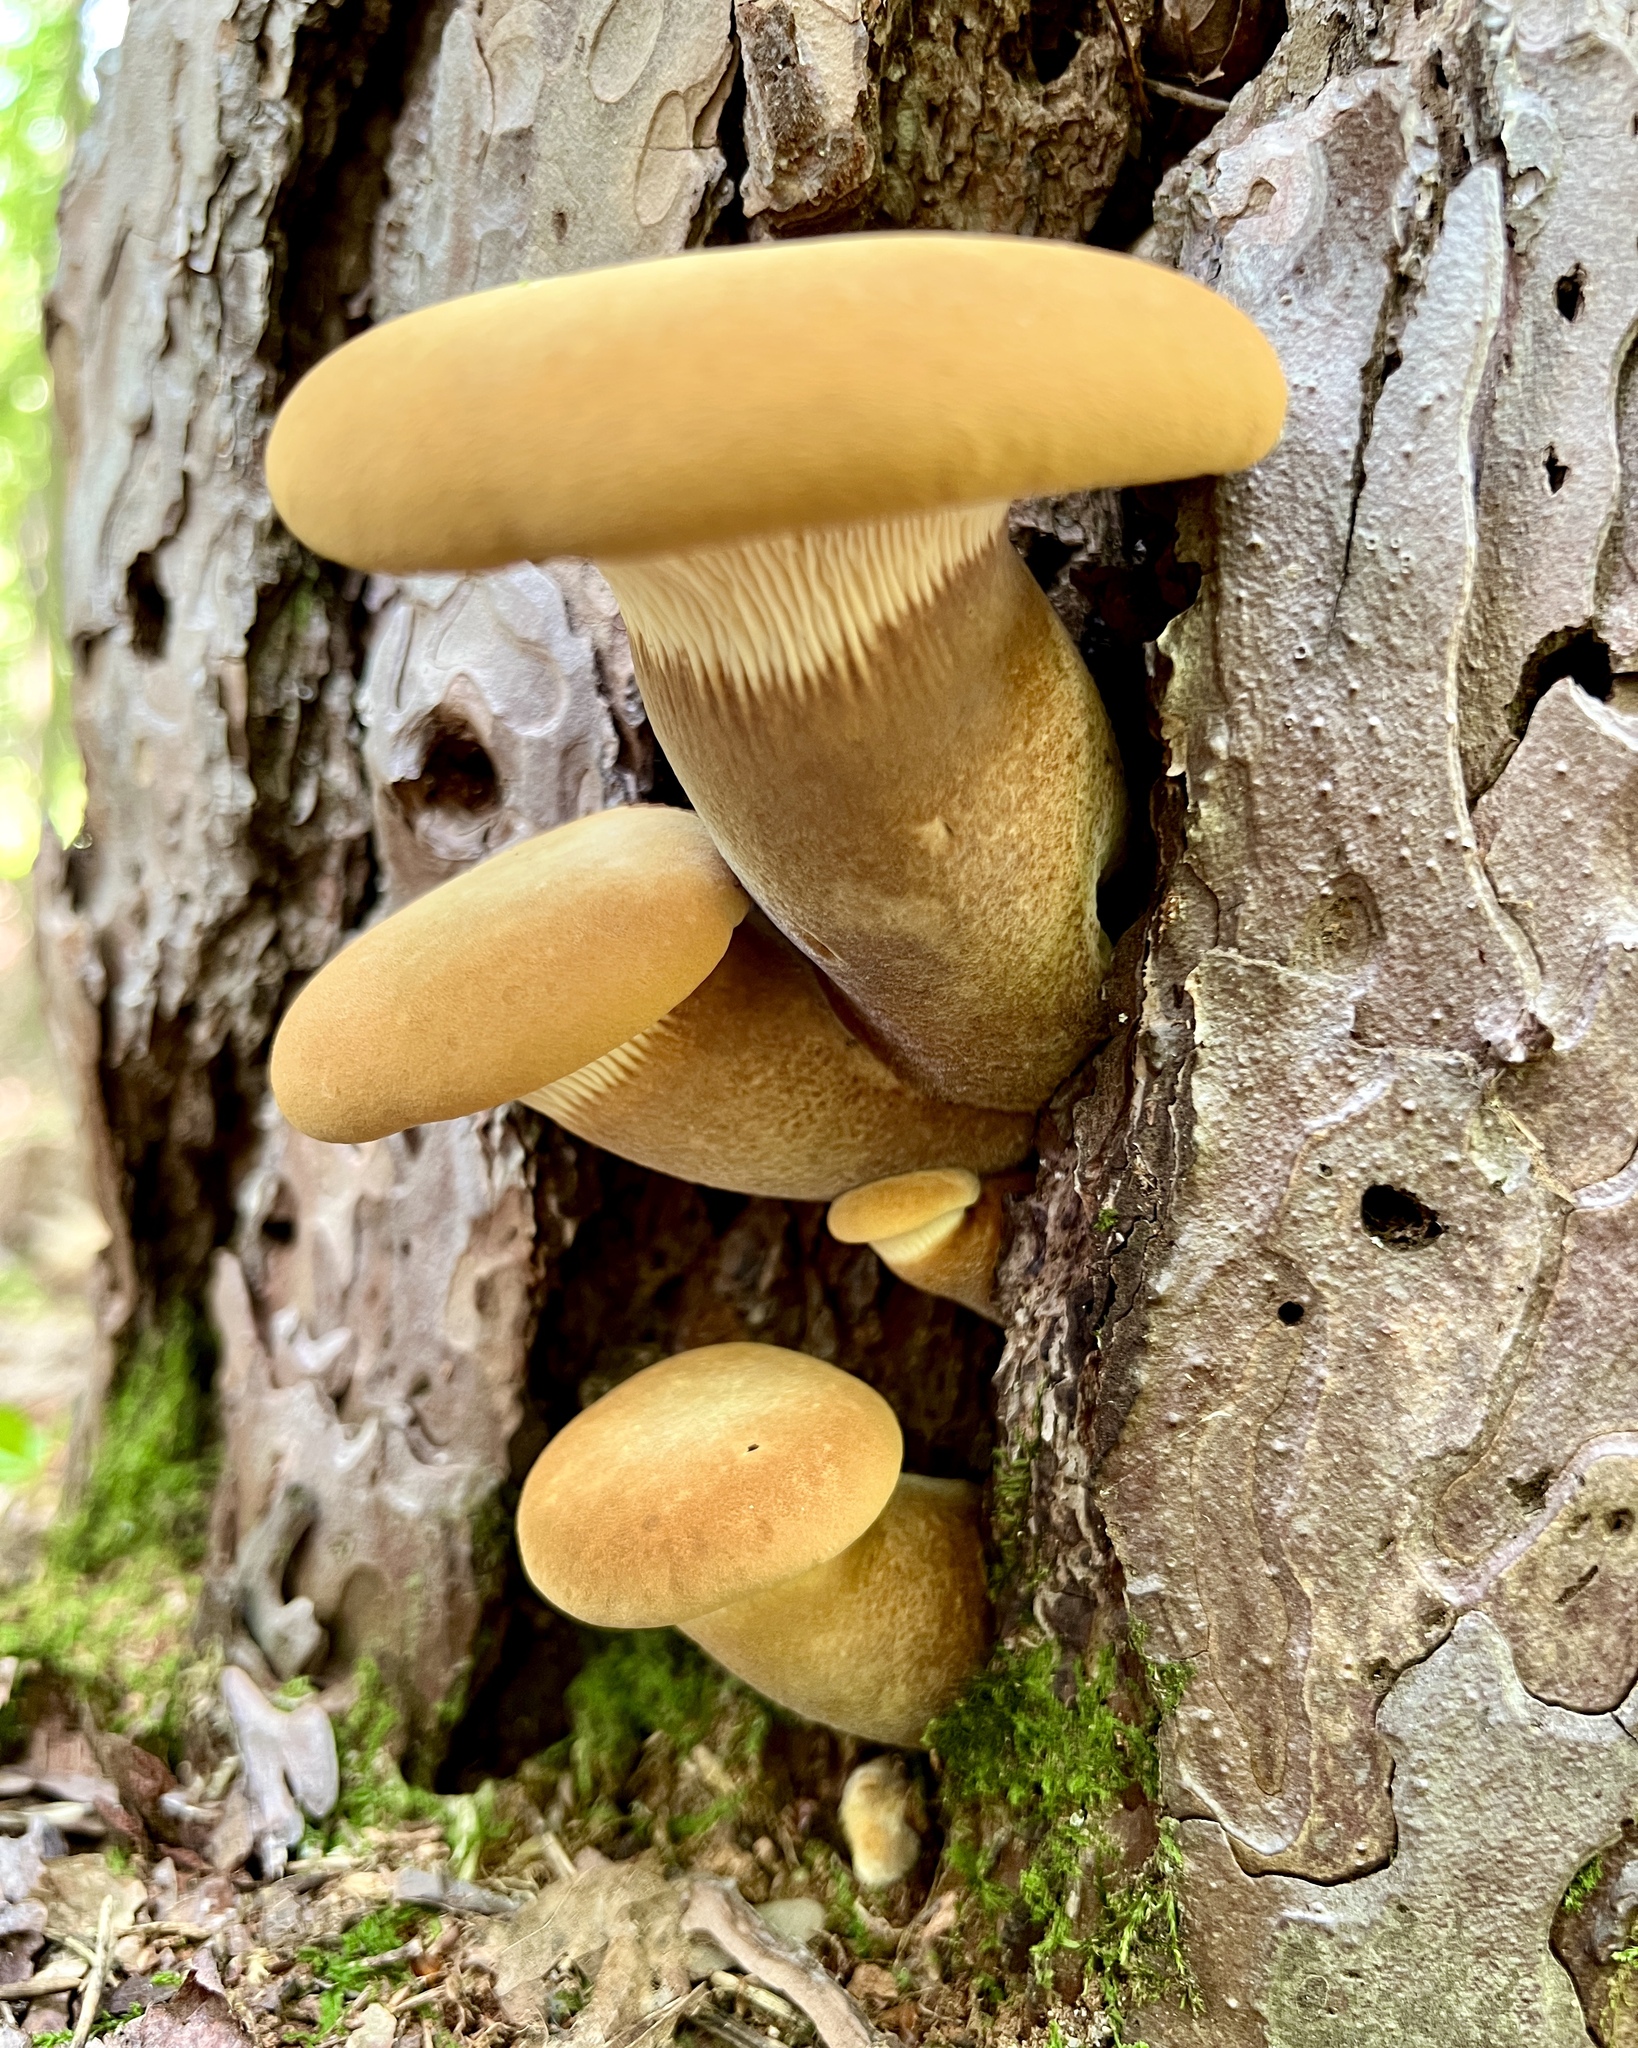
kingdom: Fungi
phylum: Basidiomycota
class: Agaricomycetes
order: Boletales
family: Tapinellaceae
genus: Tapinella
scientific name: Tapinella atrotomentosa
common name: Velvet rollrim
